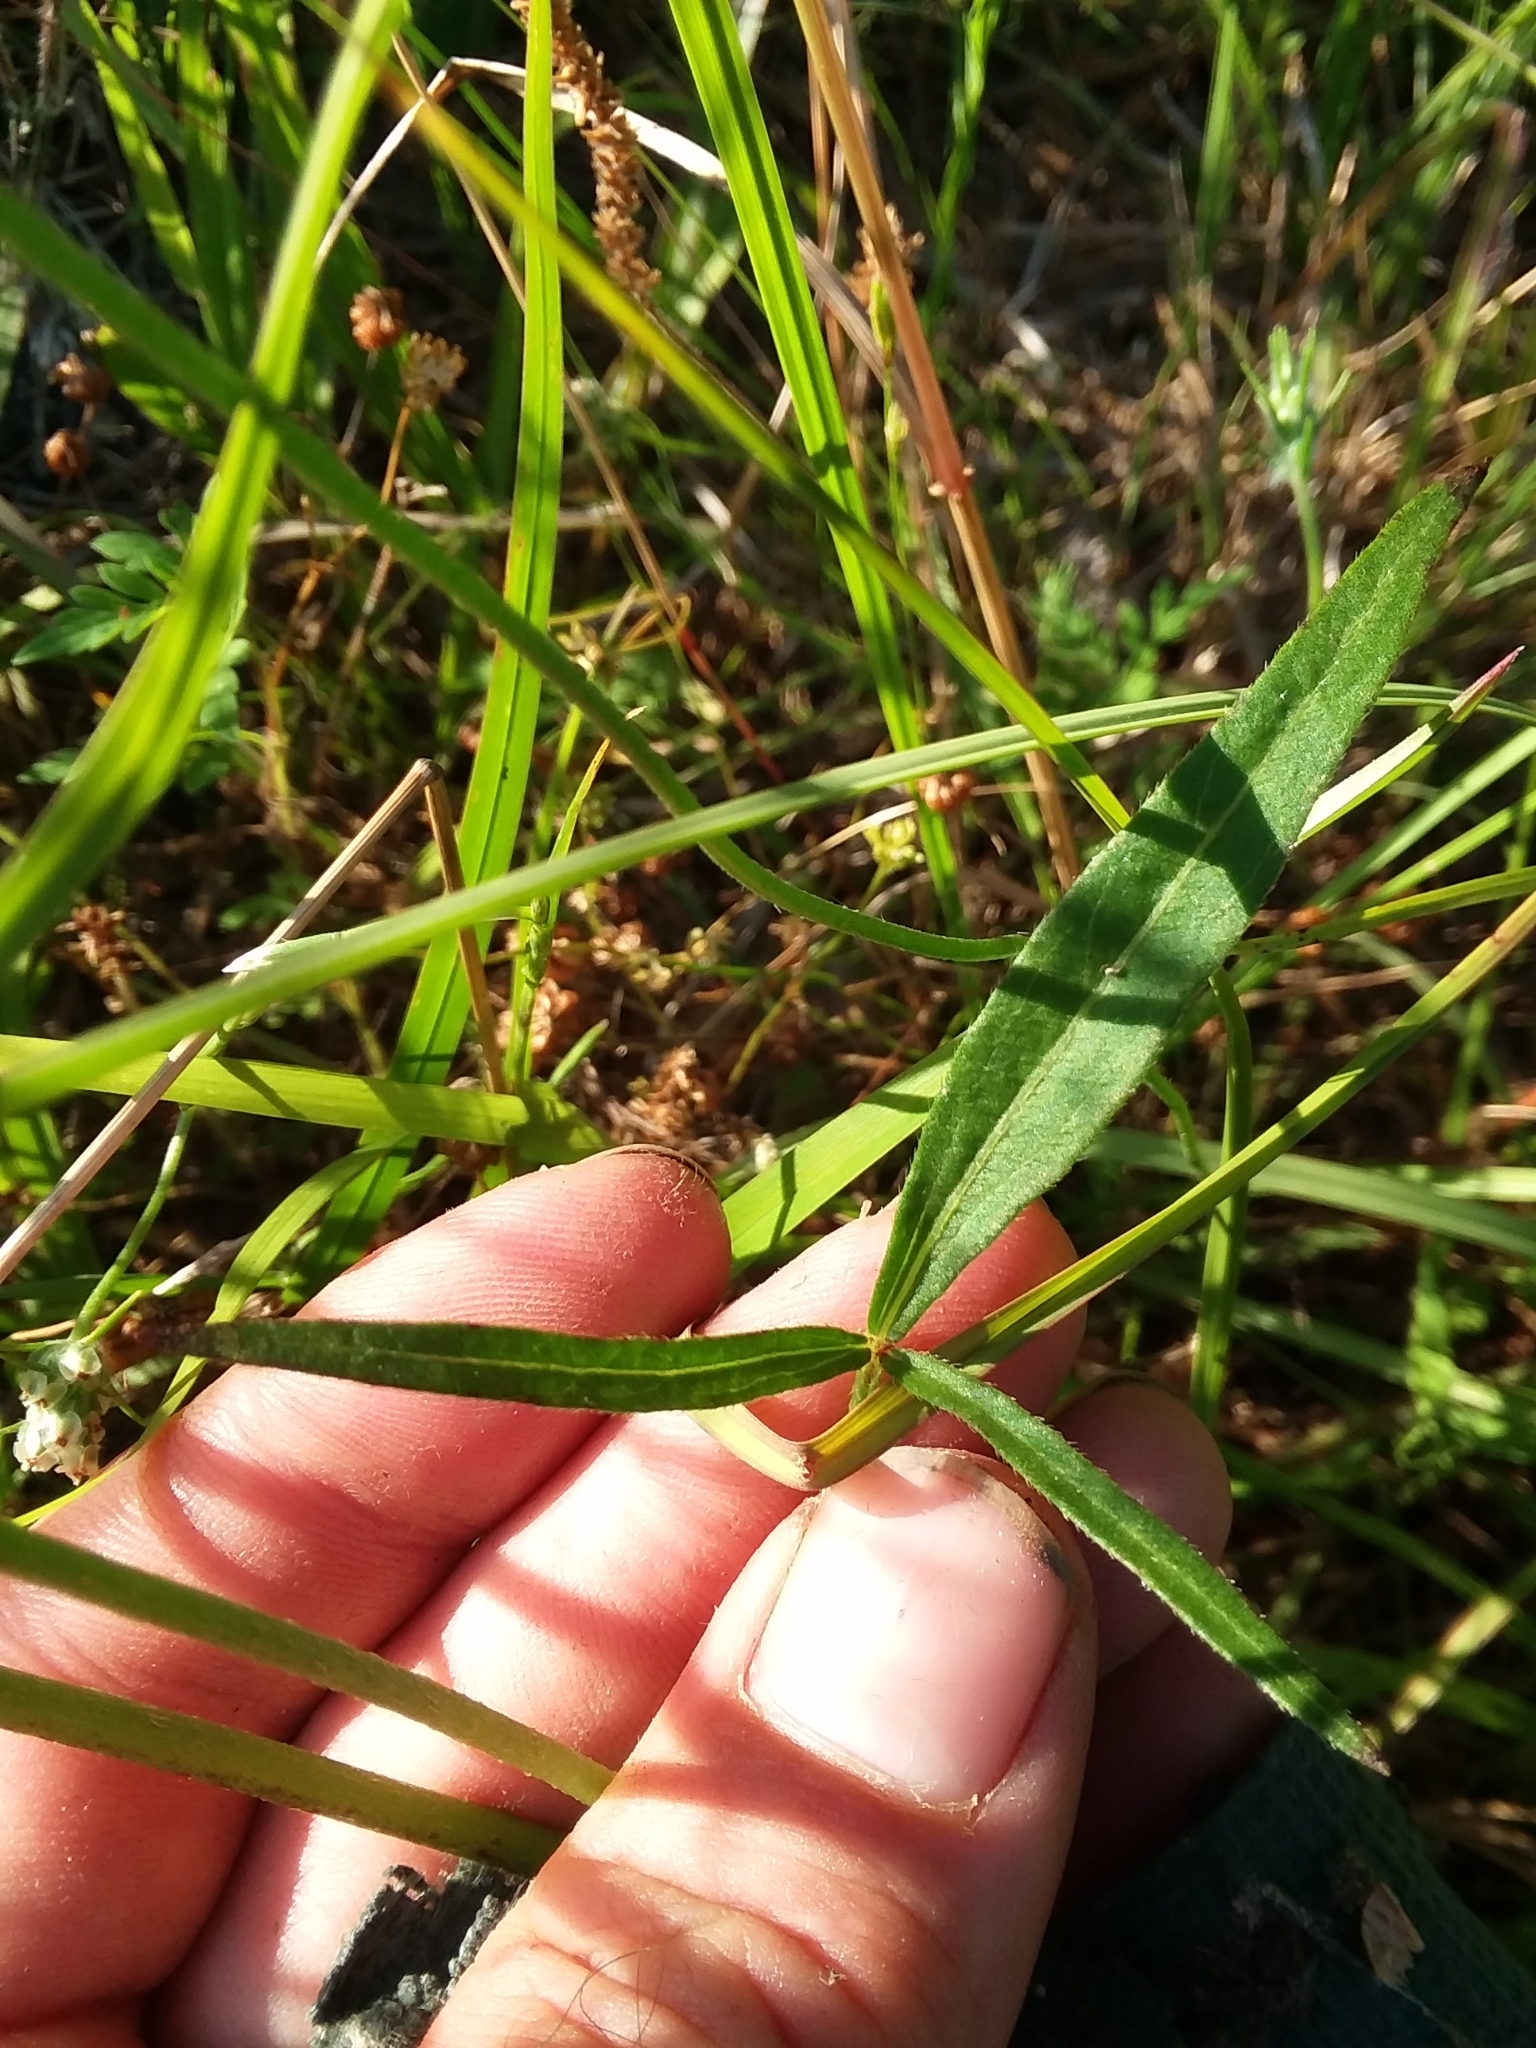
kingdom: Plantae
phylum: Tracheophyta
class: Magnoliopsida
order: Malvales
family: Malvaceae
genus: Callirhoe
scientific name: Callirhoe papaver
